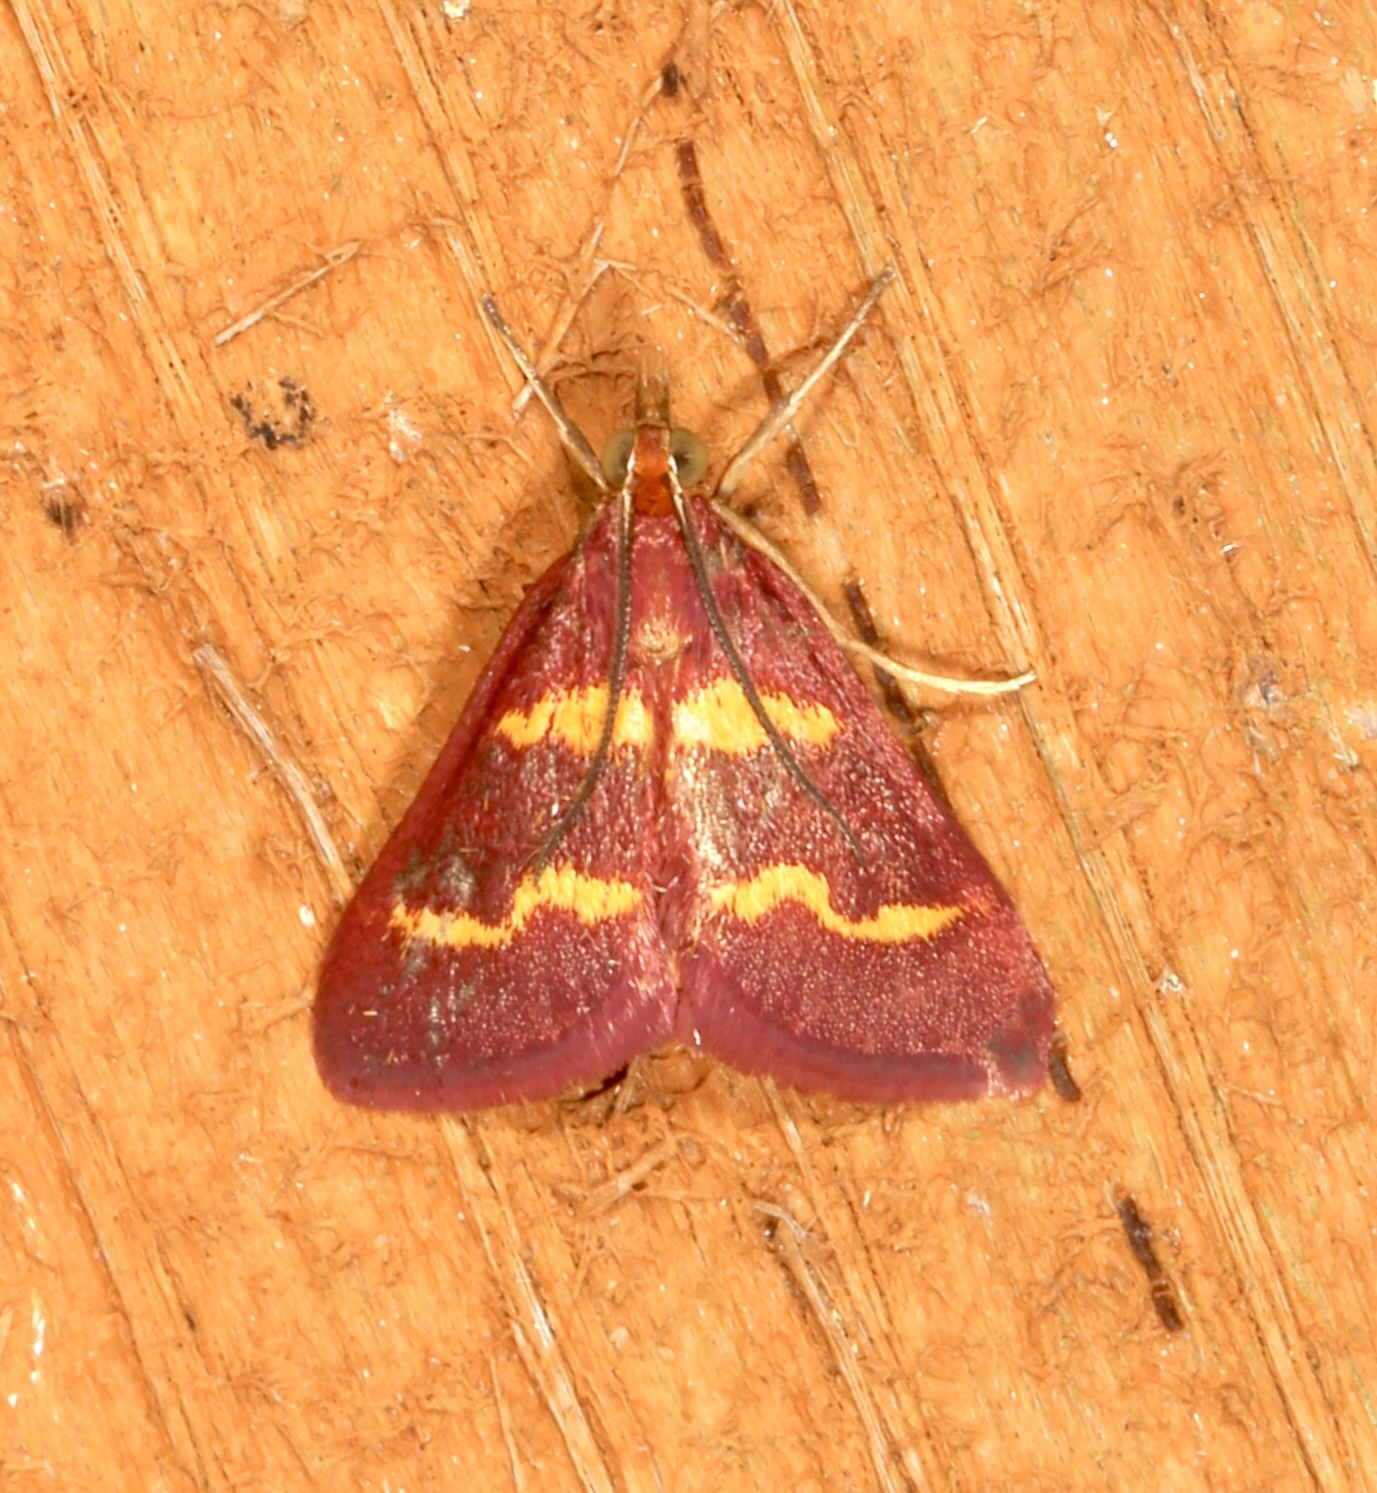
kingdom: Animalia
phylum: Arthropoda
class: Insecta
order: Lepidoptera
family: Crambidae
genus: Pyrausta
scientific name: Pyrausta tyralis
